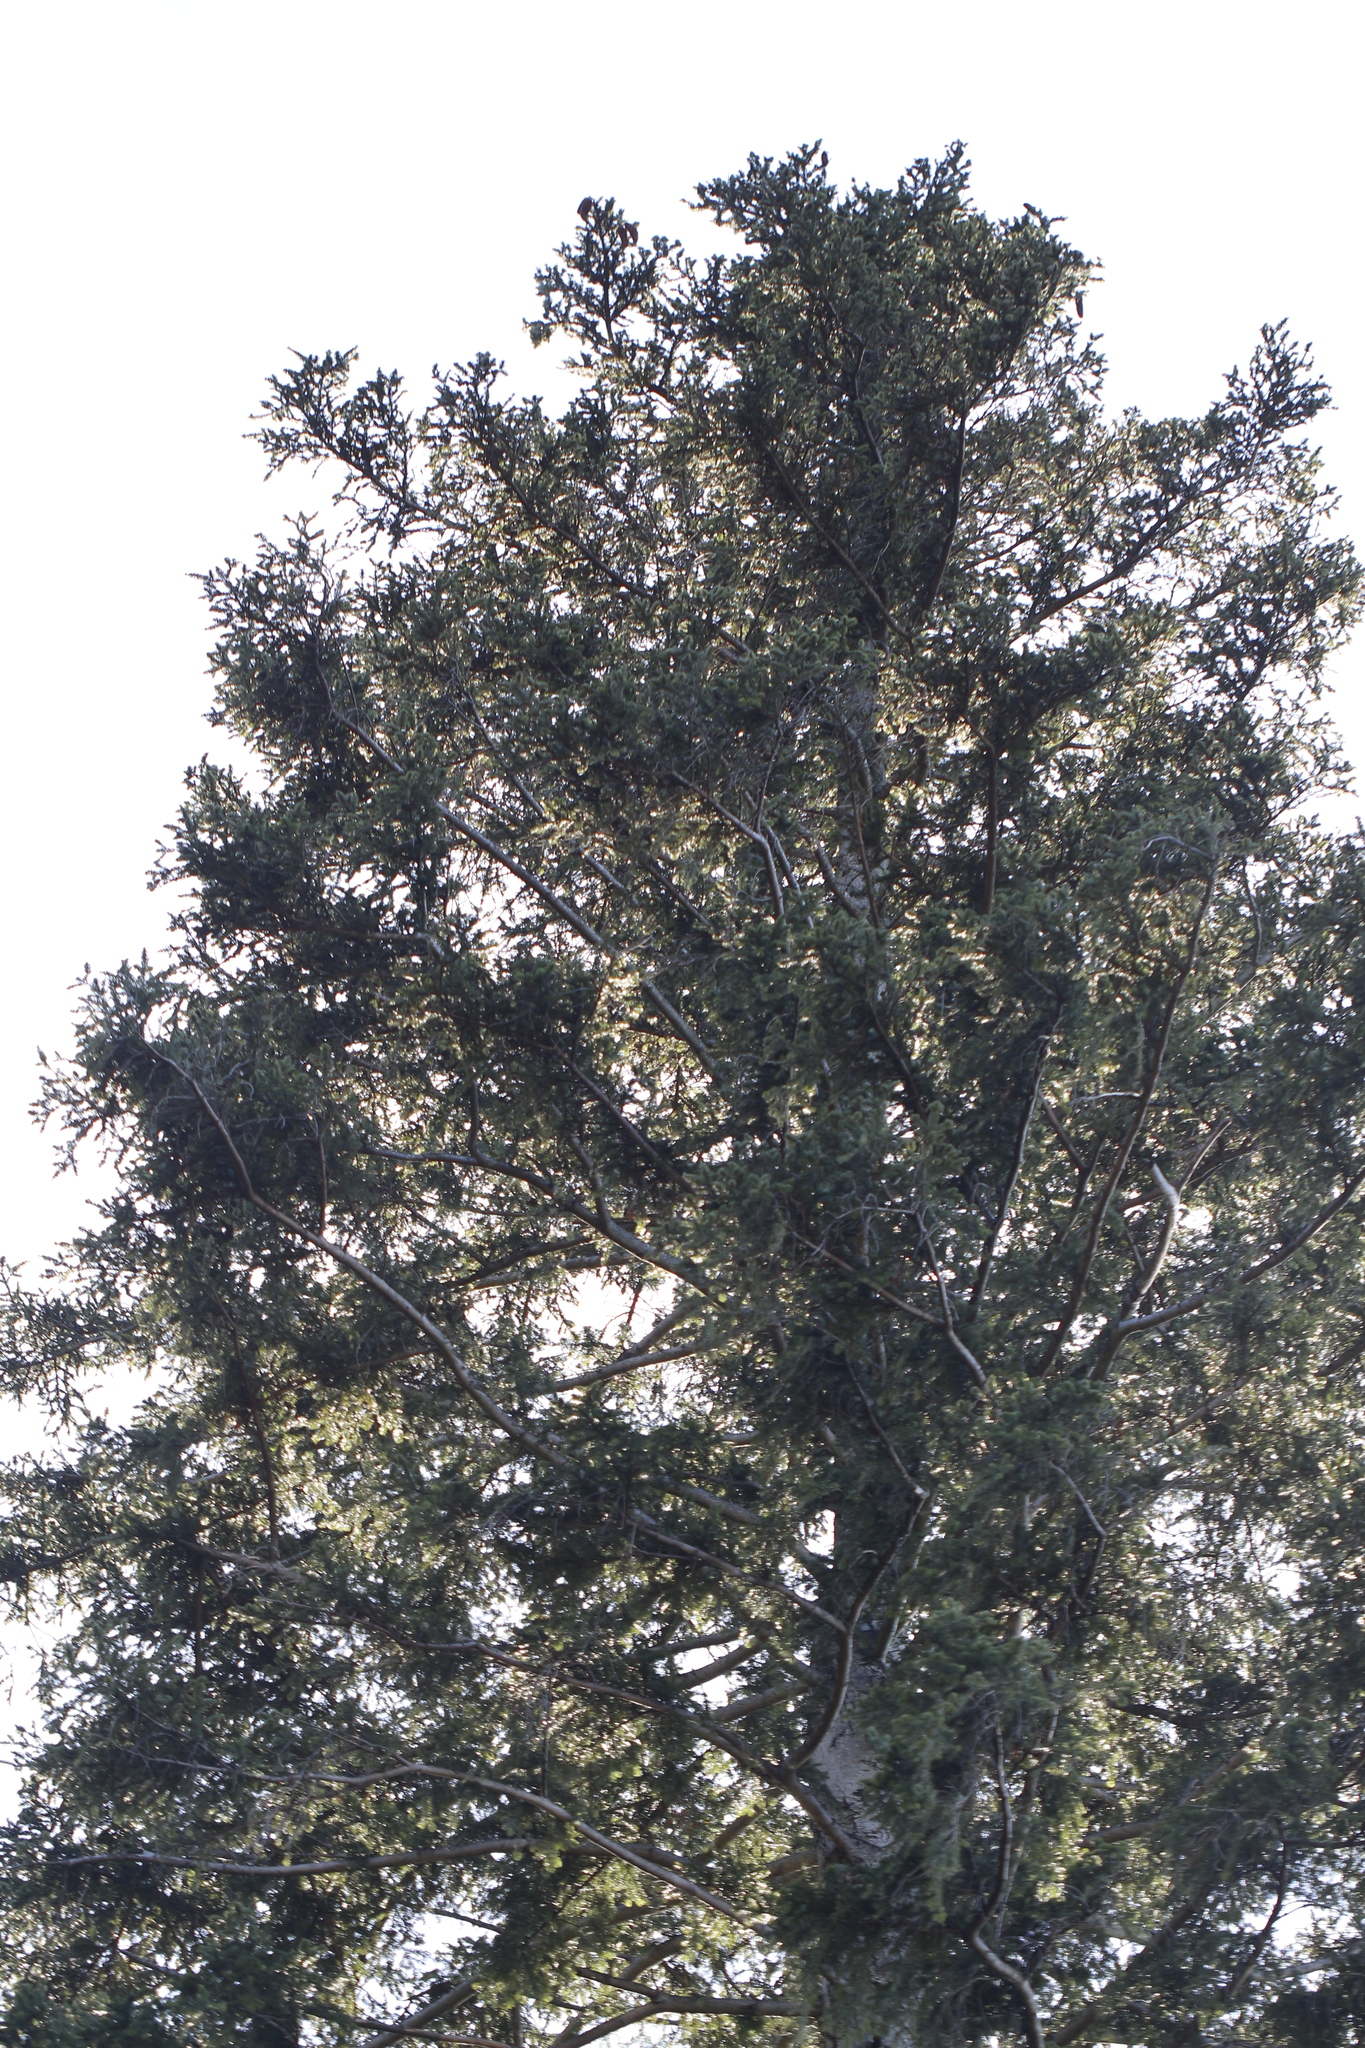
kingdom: Plantae
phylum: Tracheophyta
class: Pinopsida
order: Pinales
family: Pinaceae
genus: Abies
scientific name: Abies alba
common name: Silver fir
